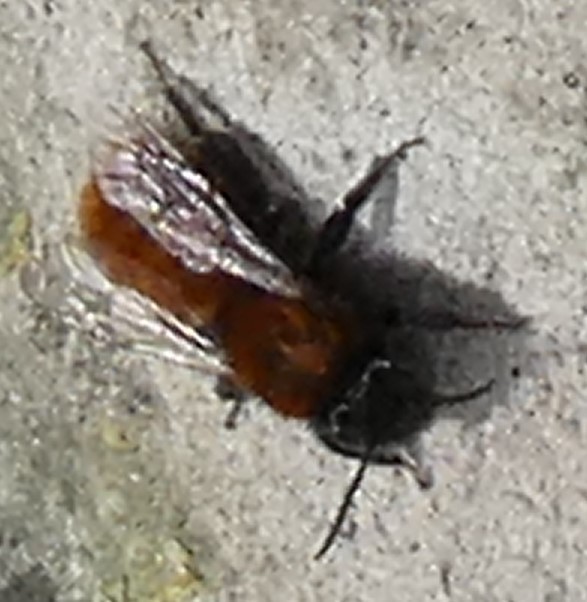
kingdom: Animalia
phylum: Arthropoda
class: Insecta
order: Hymenoptera
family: Andrenidae
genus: Andrena
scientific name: Andrena fulva
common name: Tawny mining bee
